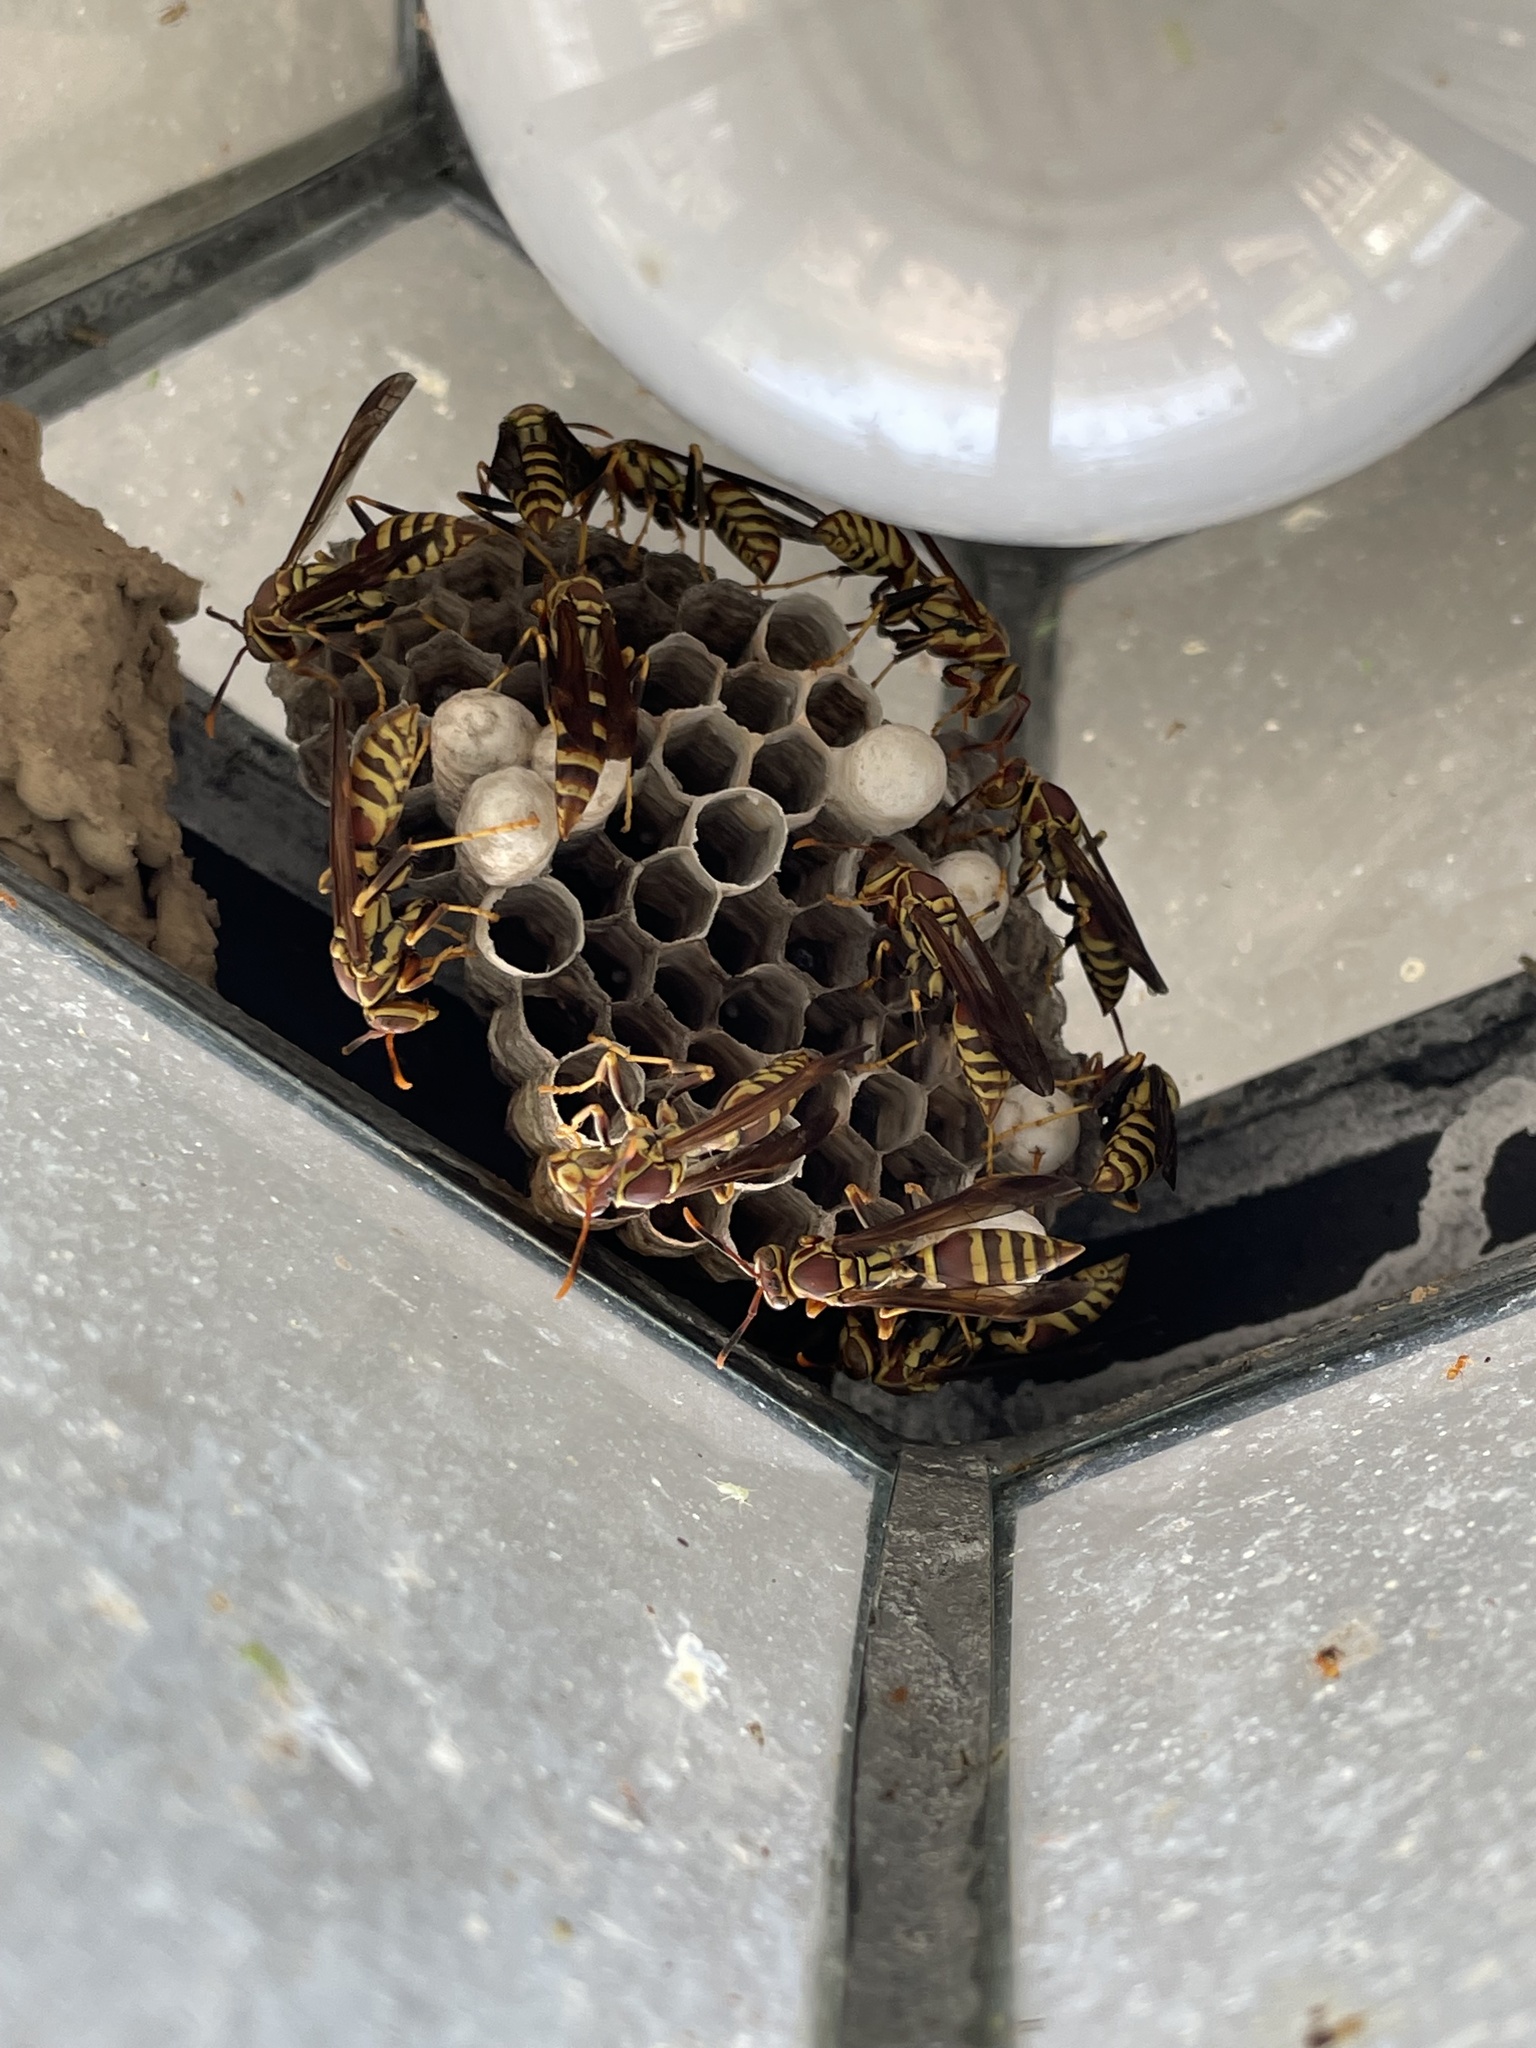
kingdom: Animalia
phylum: Arthropoda
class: Insecta
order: Hymenoptera
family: Eumenidae
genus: Polistes
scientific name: Polistes exclamans
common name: Paper wasp
